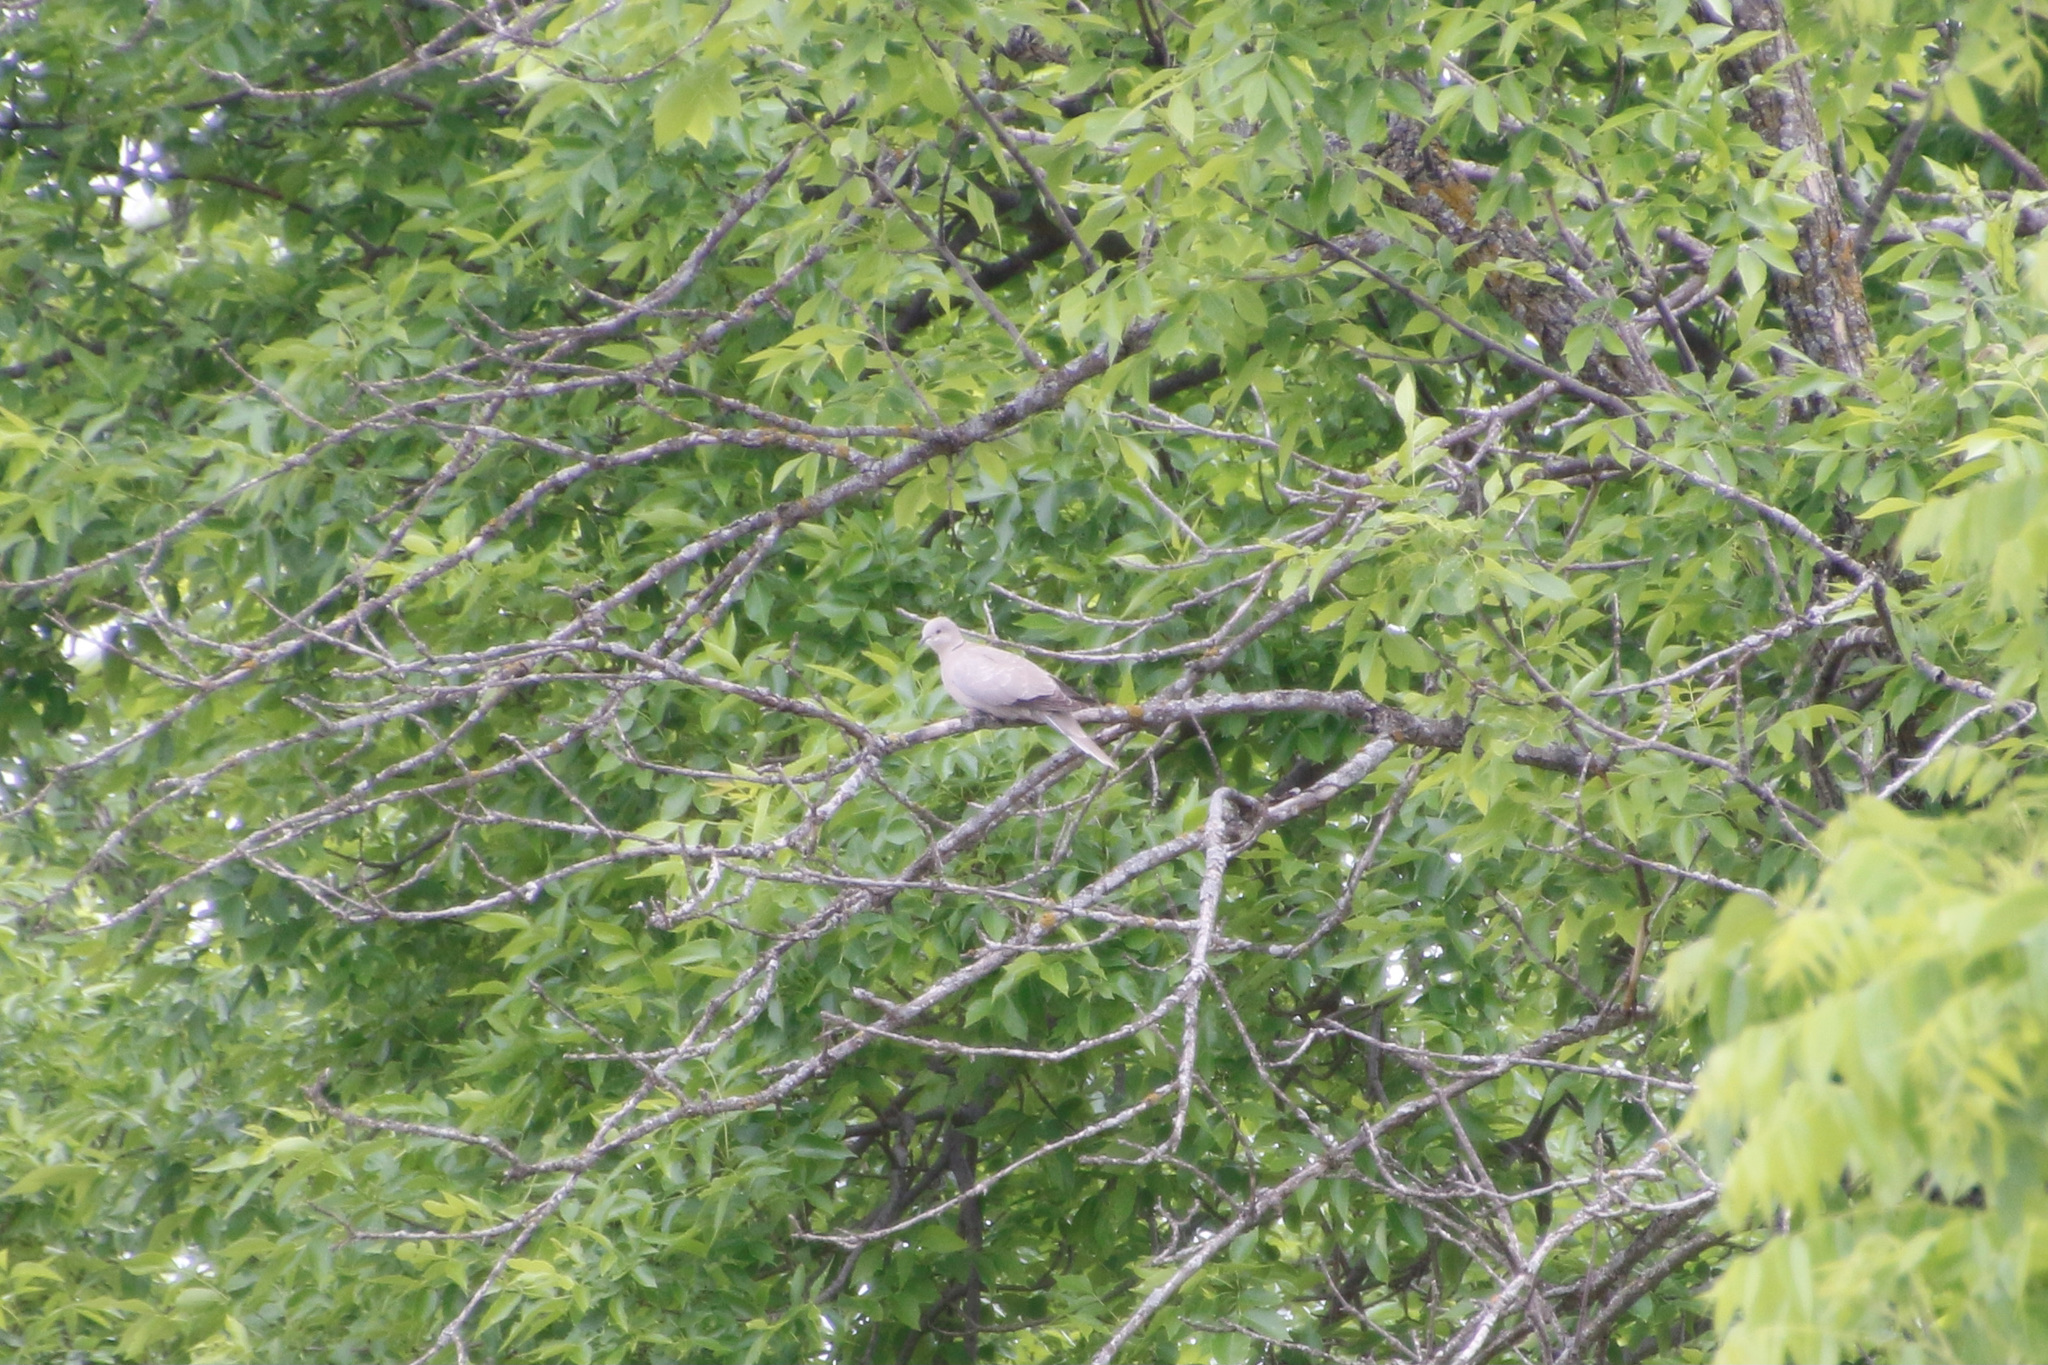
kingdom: Animalia
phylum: Chordata
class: Aves
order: Columbiformes
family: Columbidae
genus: Streptopelia
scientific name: Streptopelia decaocto
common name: Eurasian collared dove
